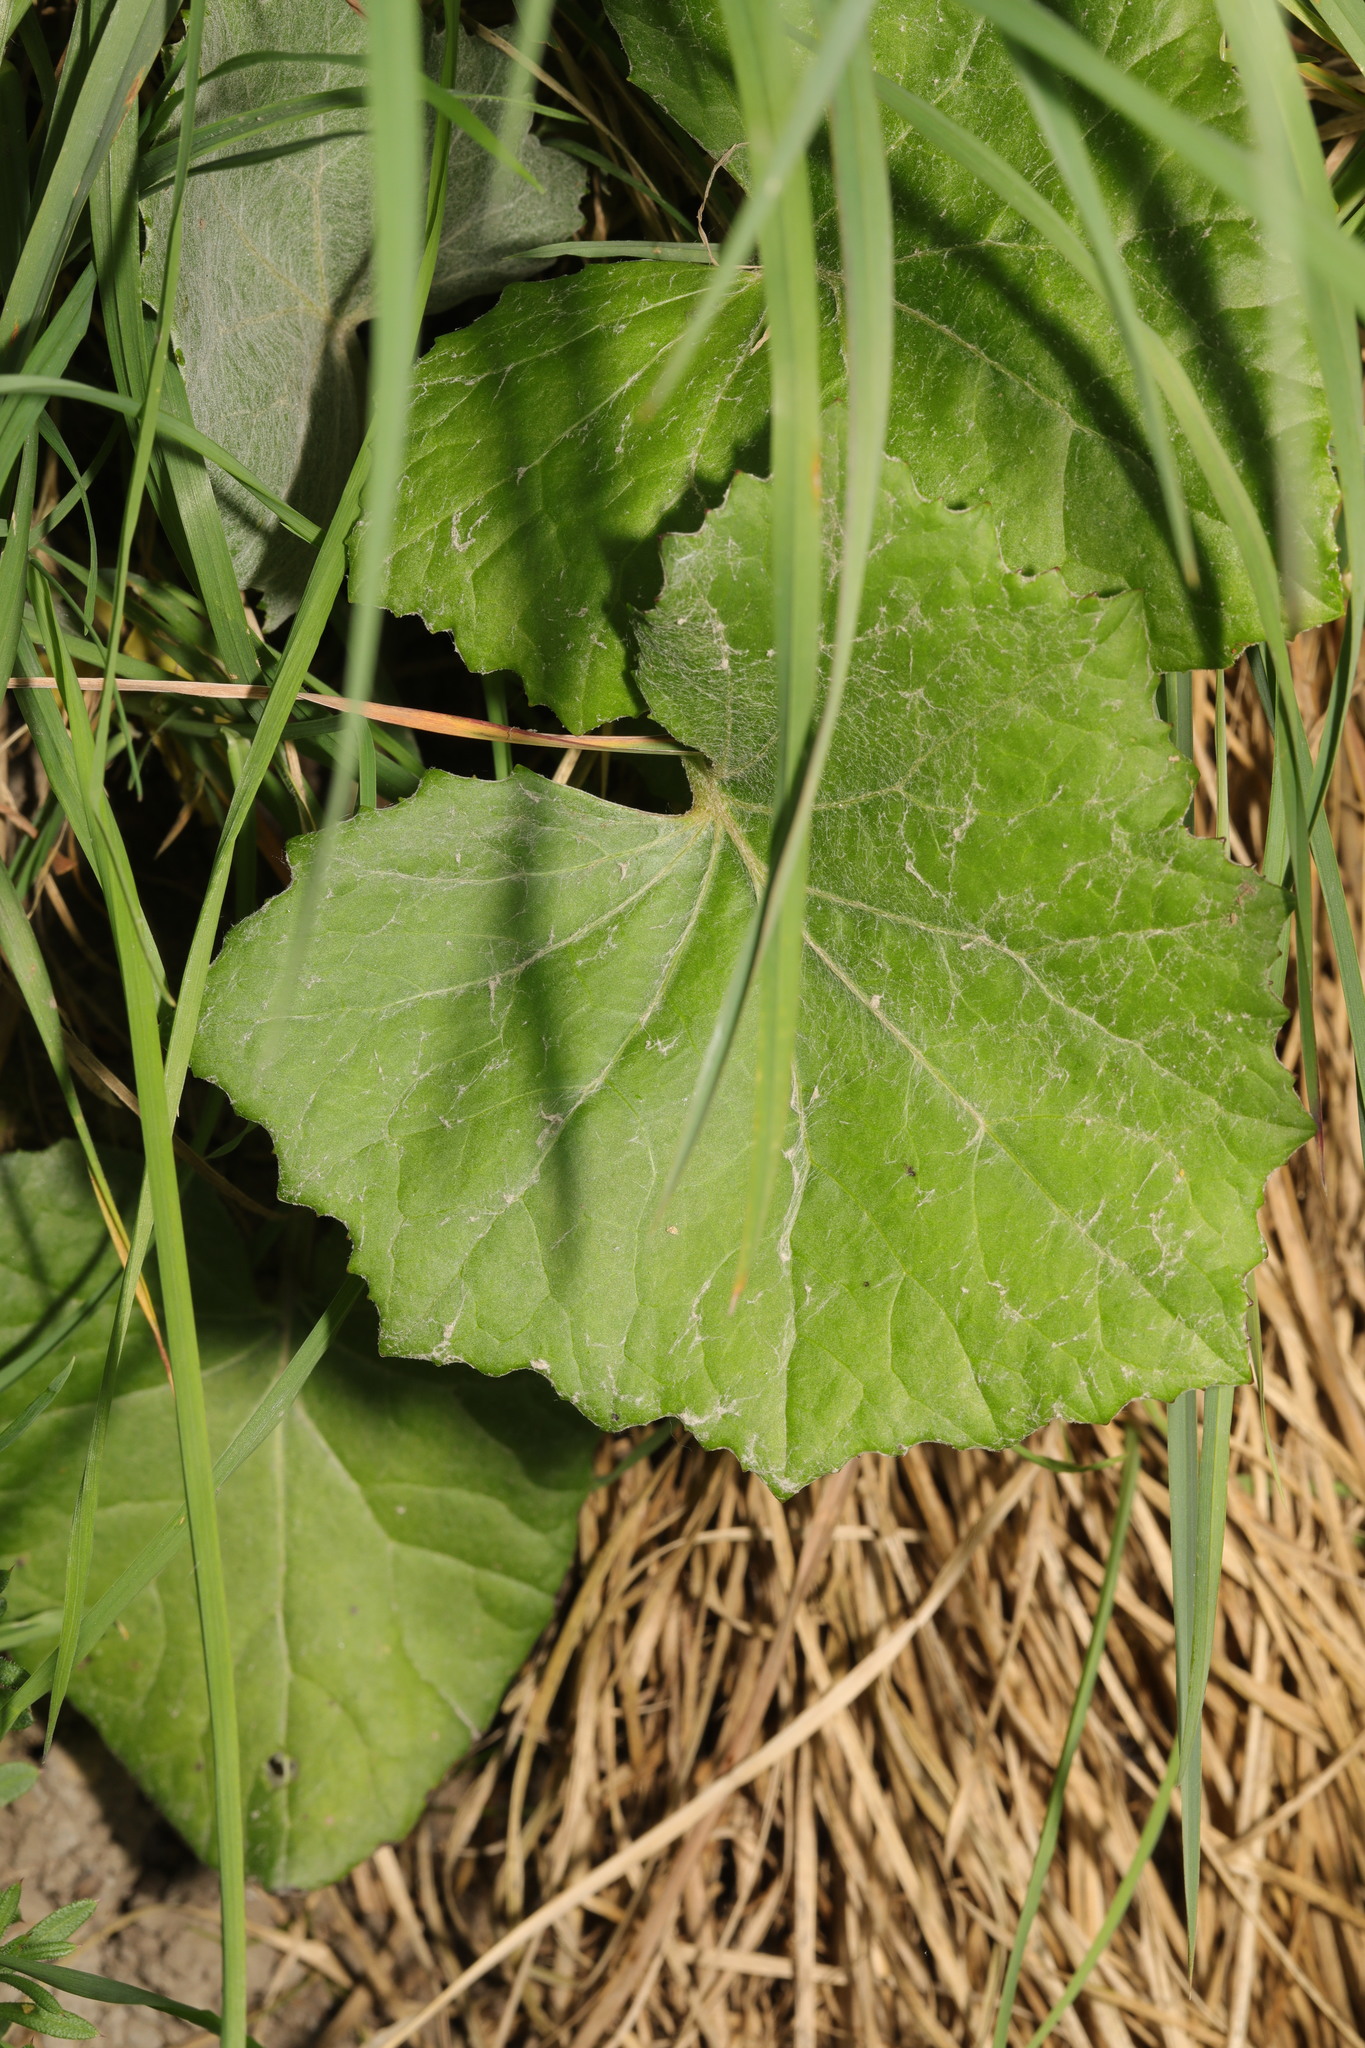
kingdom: Plantae
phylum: Tracheophyta
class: Magnoliopsida
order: Asterales
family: Asteraceae
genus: Tussilago
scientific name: Tussilago farfara
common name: Coltsfoot
